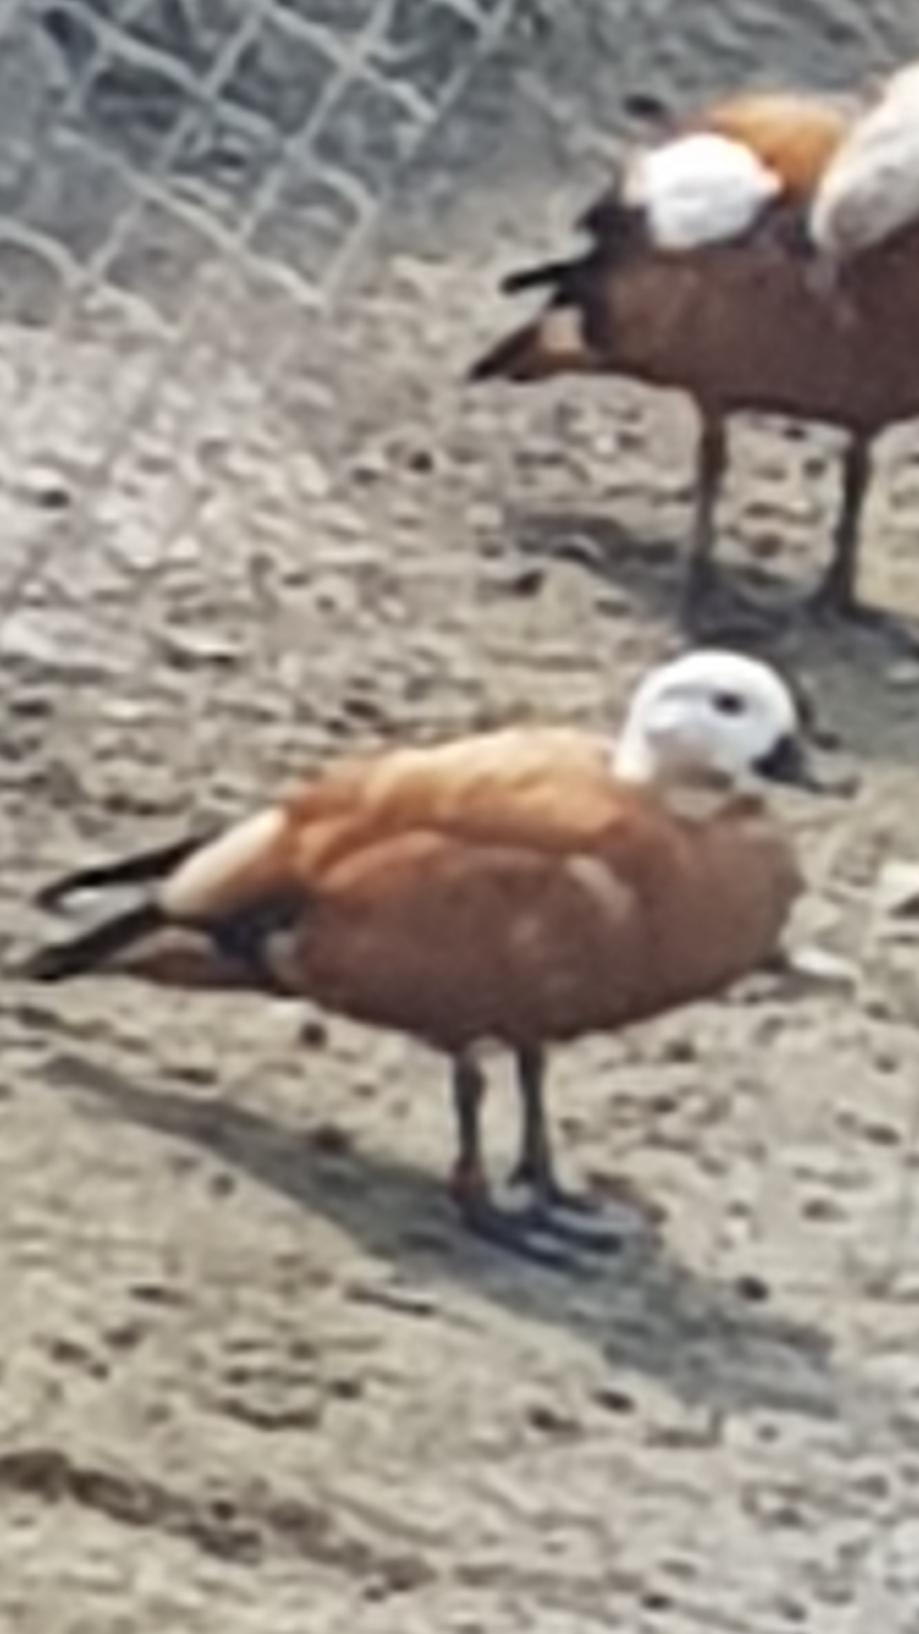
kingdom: Animalia
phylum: Chordata
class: Aves
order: Anseriformes
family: Anatidae
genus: Tadorna
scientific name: Tadorna ferruginea
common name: Ruddy shelduck
